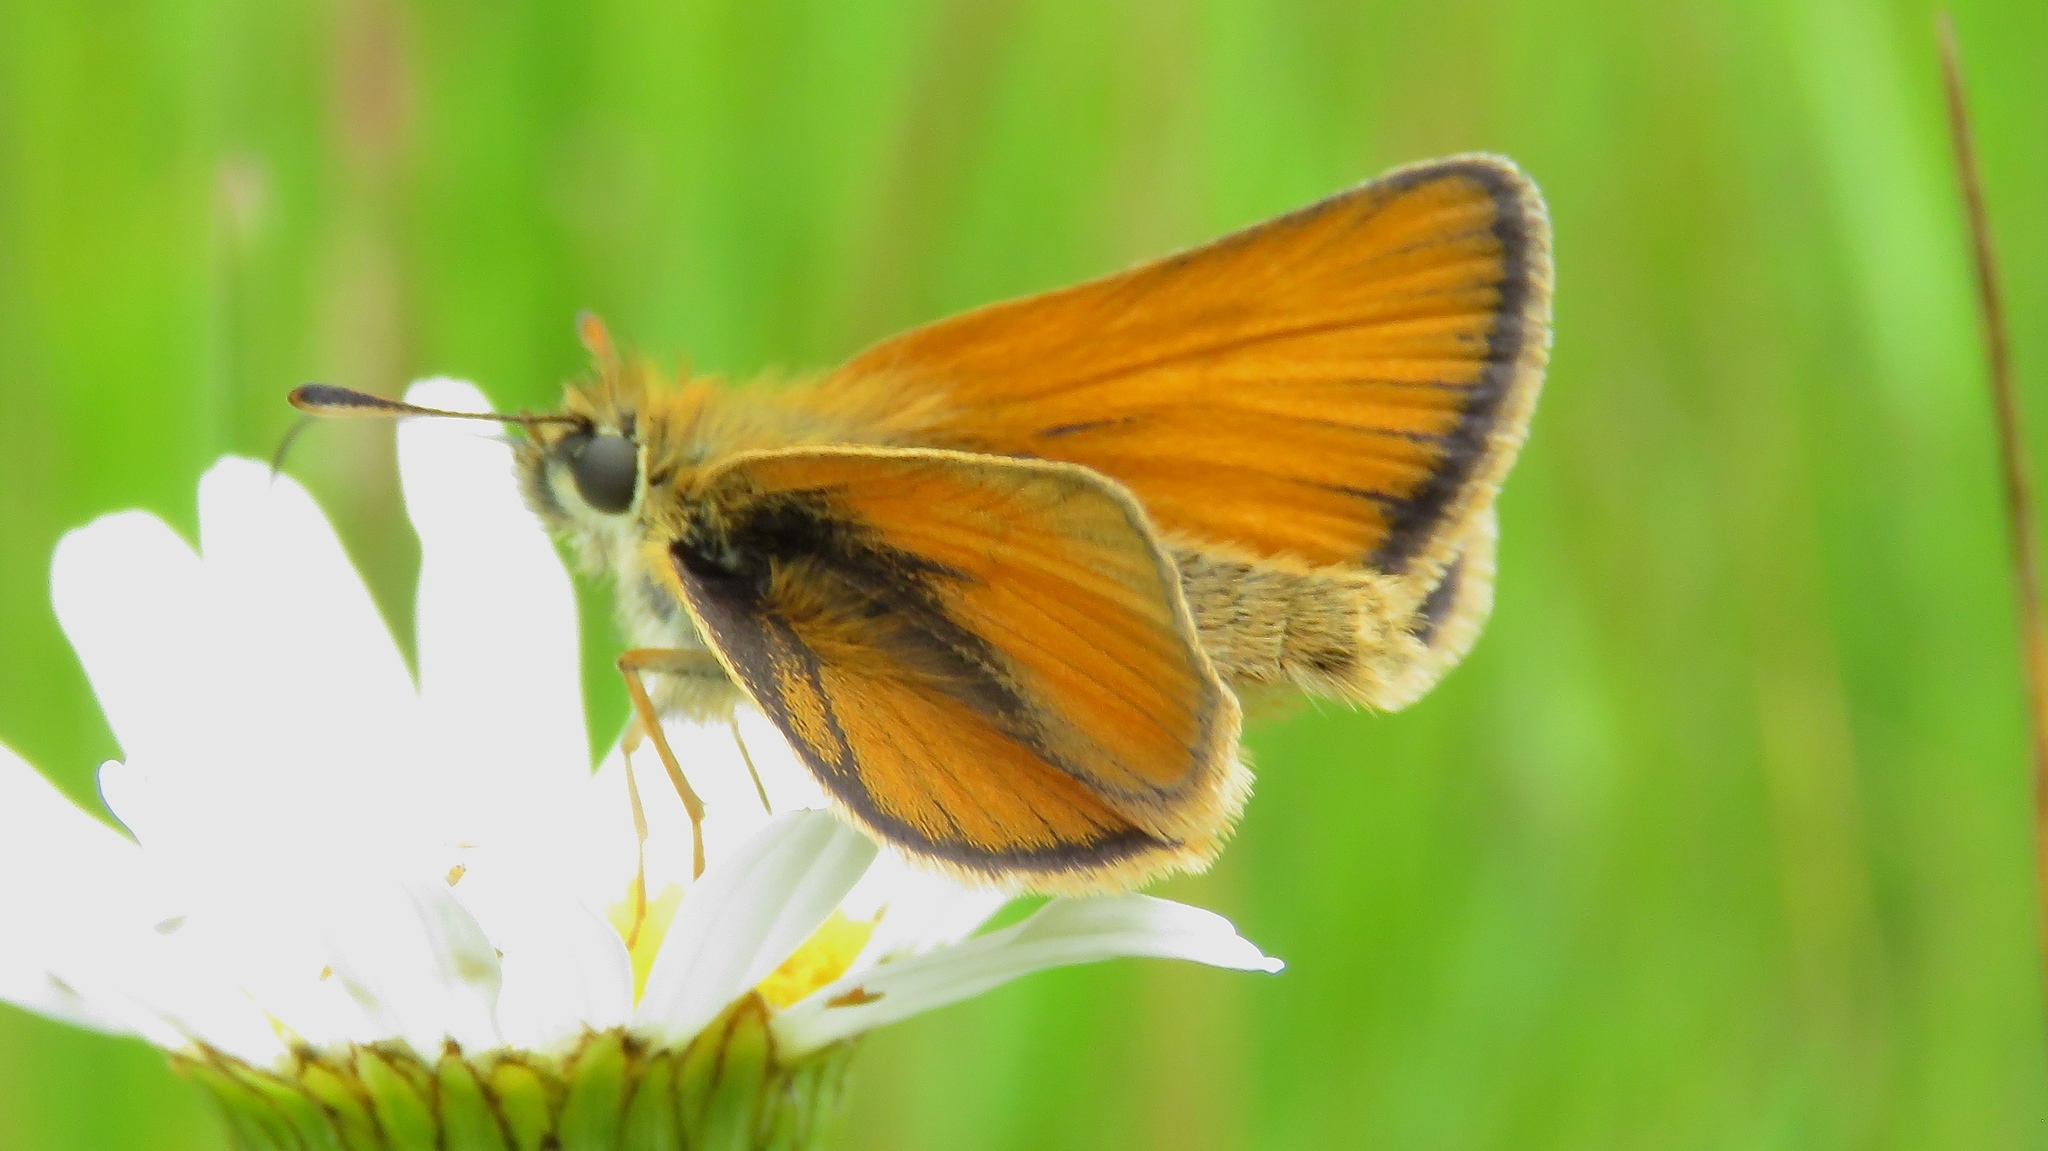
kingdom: Animalia
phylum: Arthropoda
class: Insecta
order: Lepidoptera
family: Hesperiidae
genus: Thymelicus
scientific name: Thymelicus lineola
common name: Essex skipper
